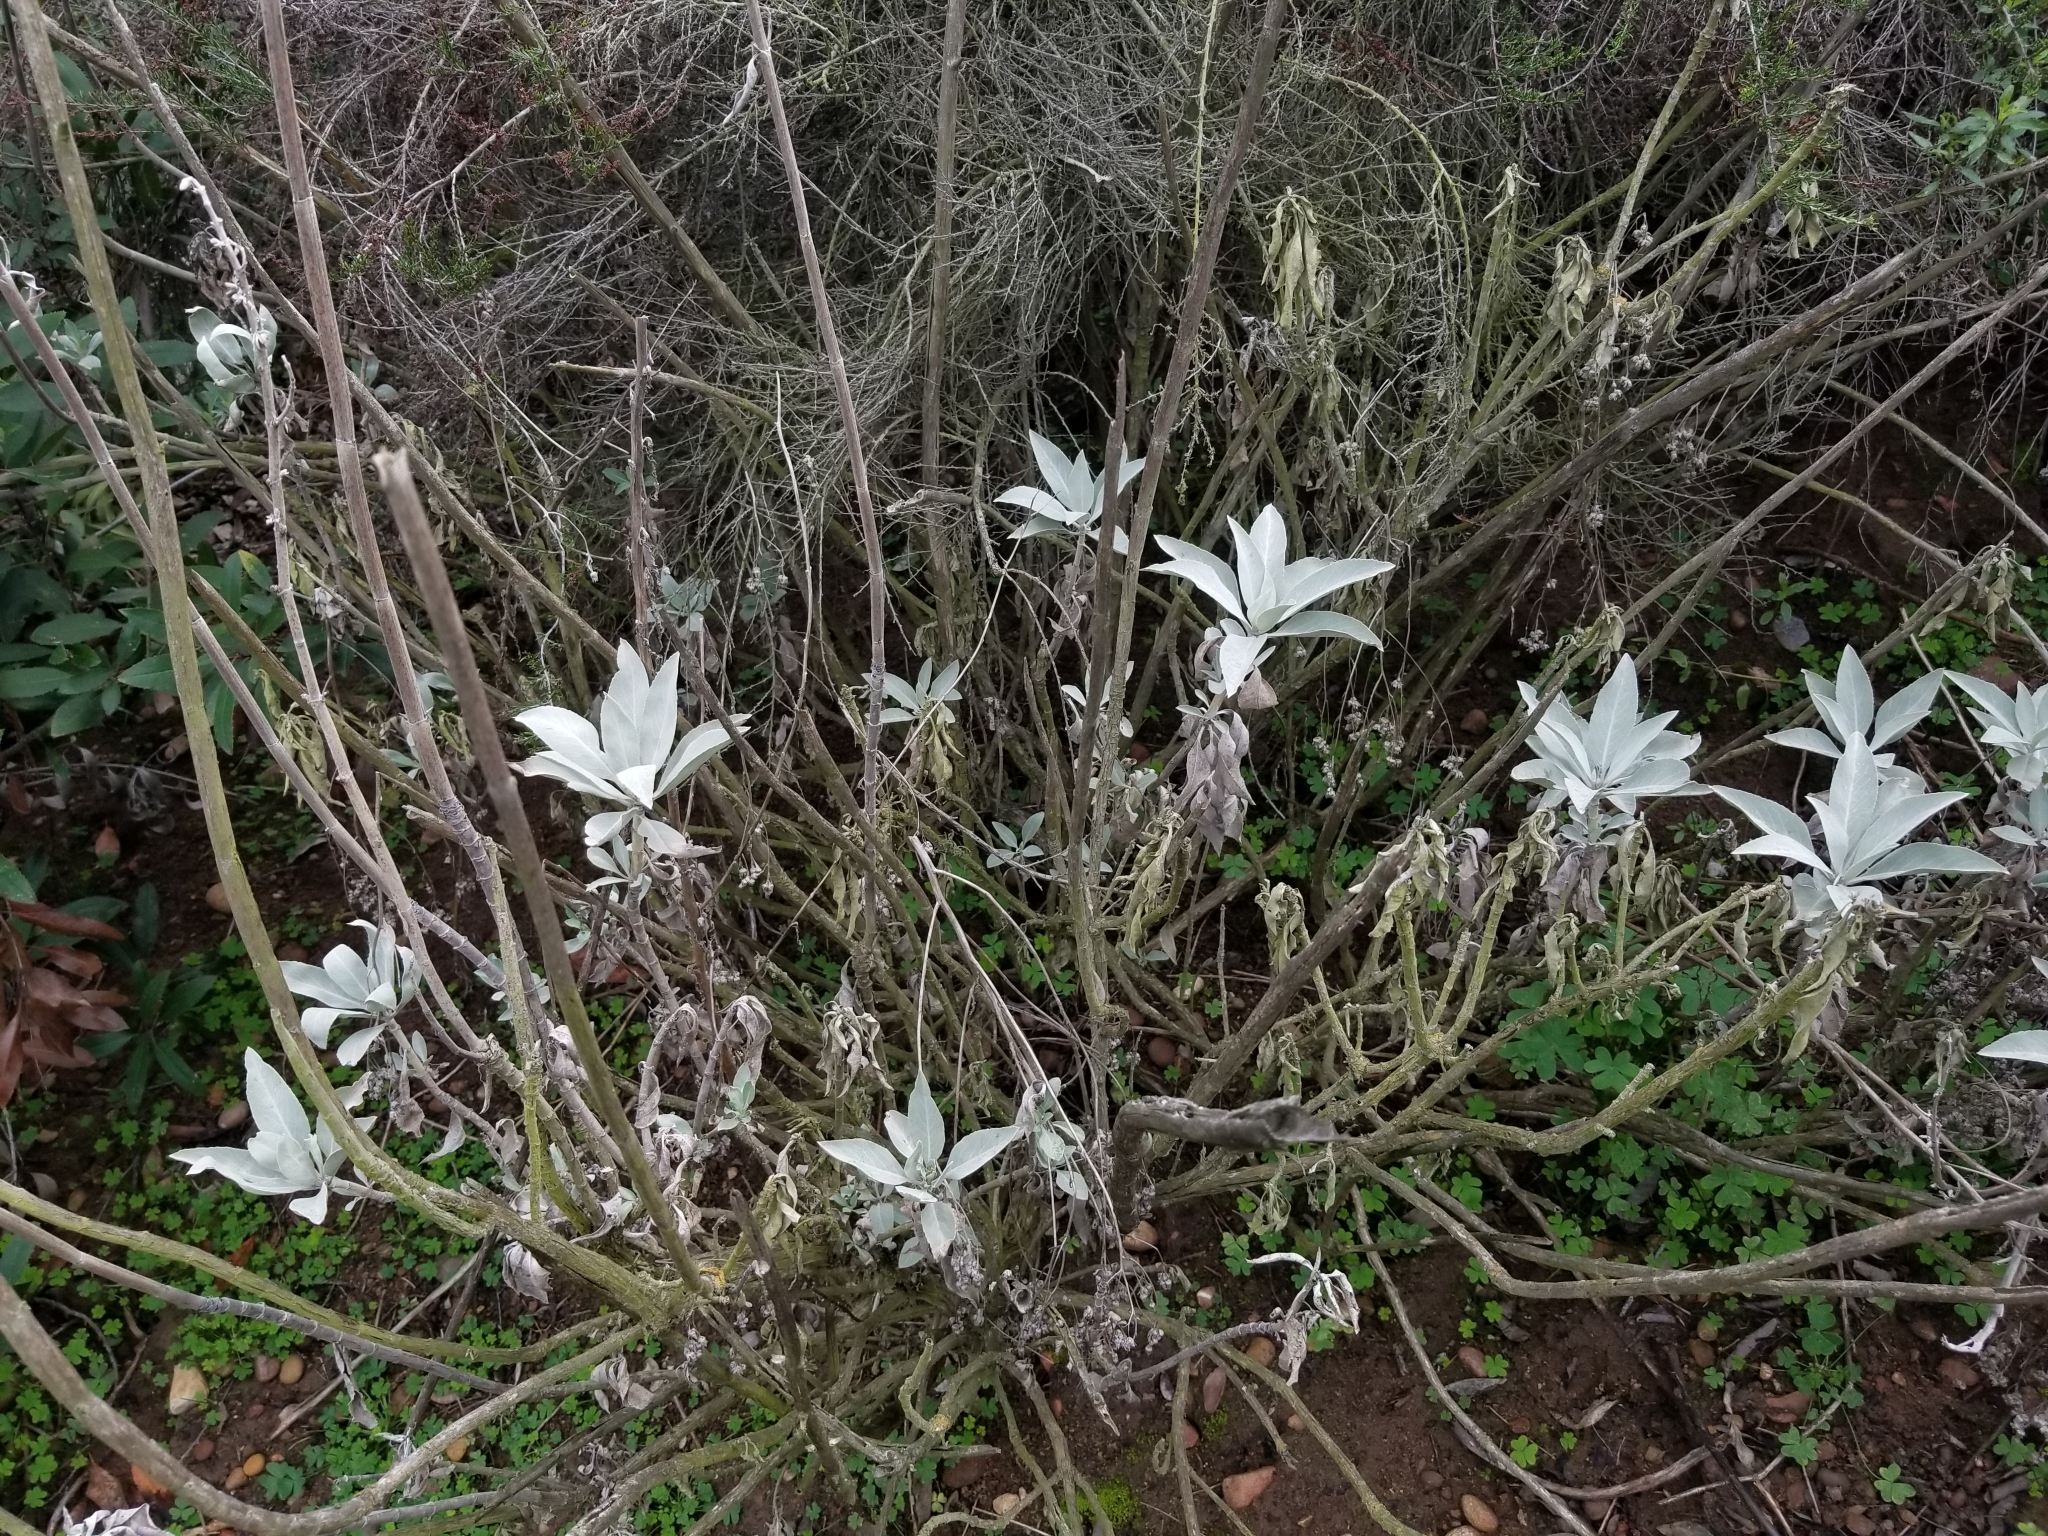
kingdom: Plantae
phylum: Tracheophyta
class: Magnoliopsida
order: Lamiales
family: Lamiaceae
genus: Salvia
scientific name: Salvia apiana
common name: White sage
